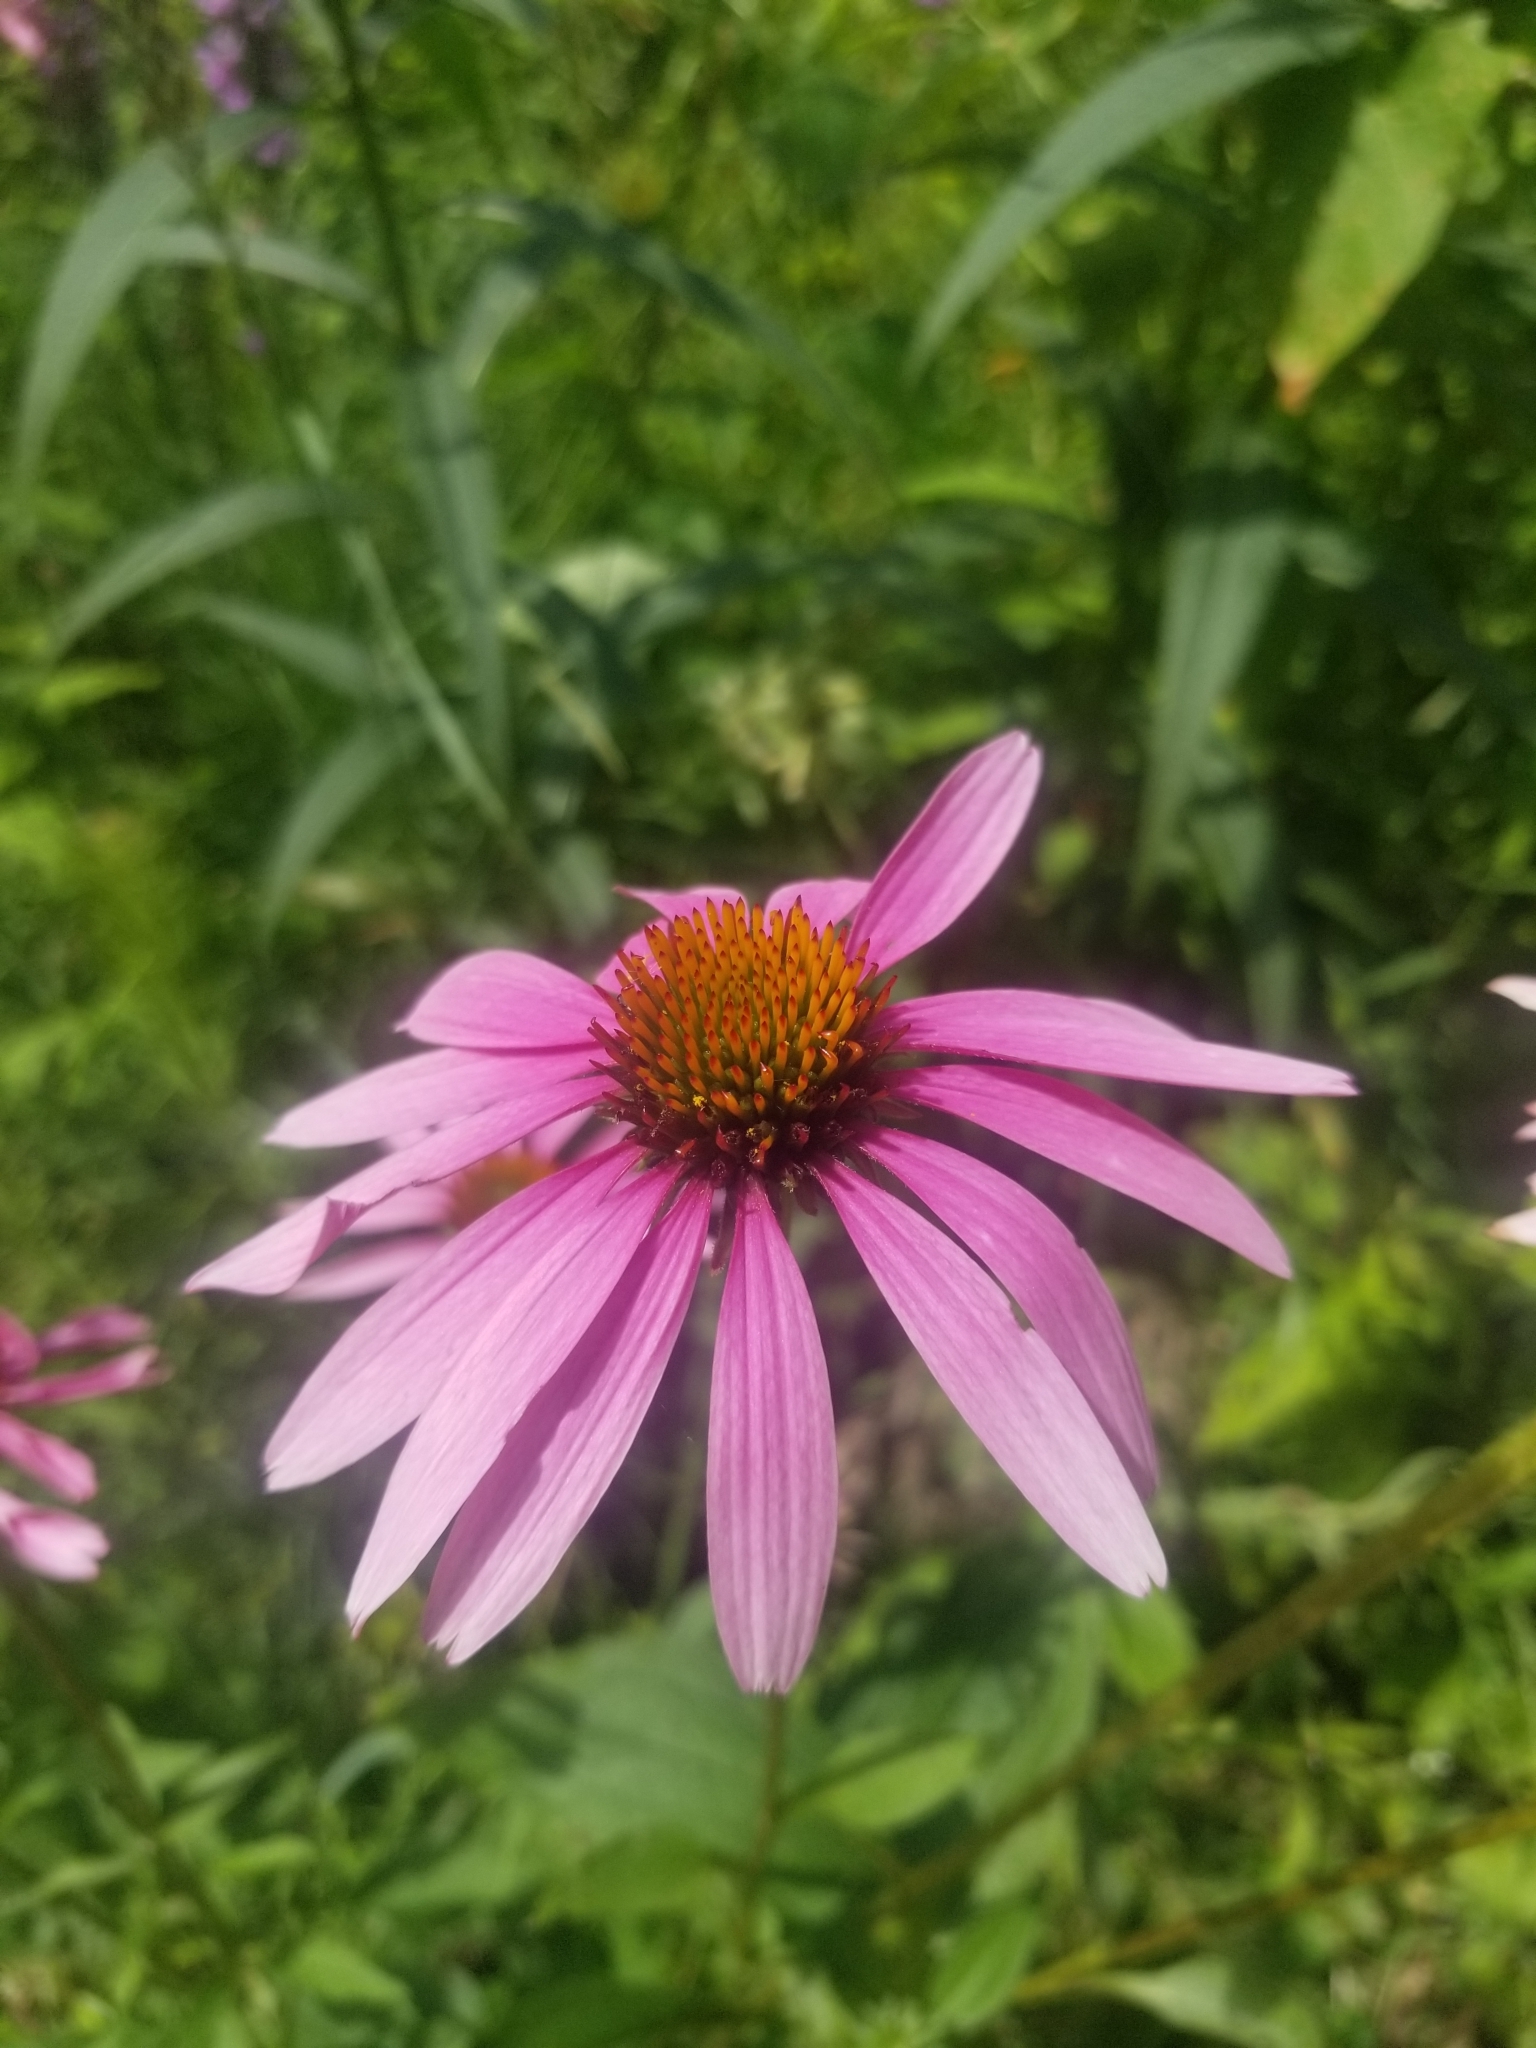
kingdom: Plantae
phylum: Tracheophyta
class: Magnoliopsida
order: Asterales
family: Asteraceae
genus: Echinacea
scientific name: Echinacea purpurea
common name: Broad-leaved purple coneflower
